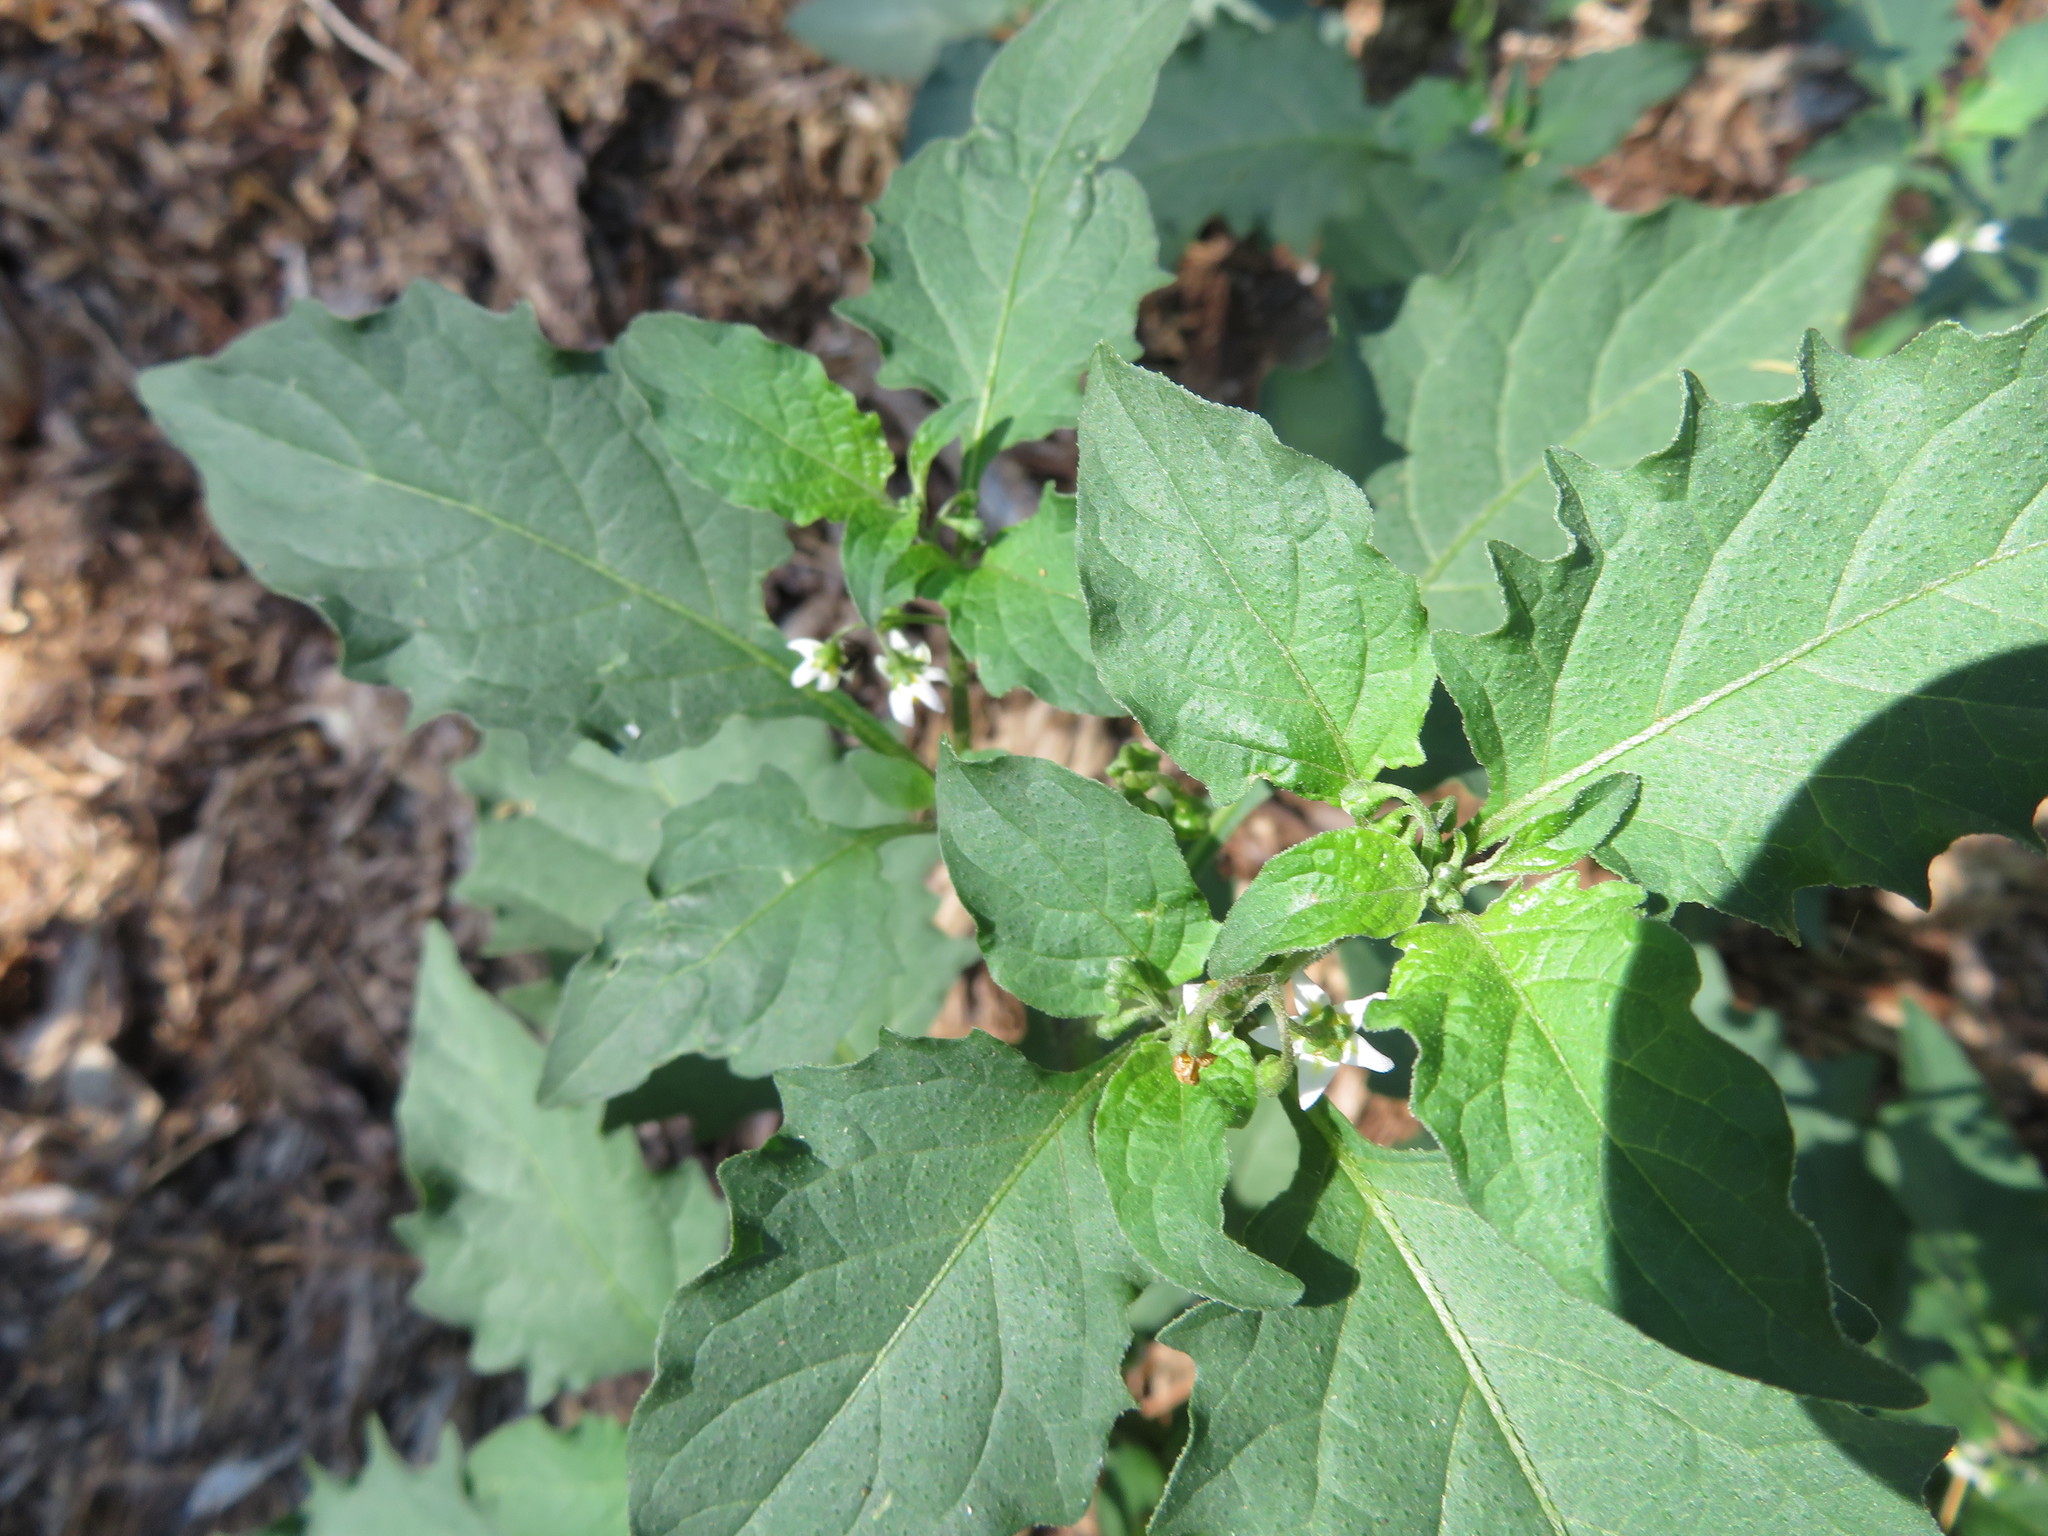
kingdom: Plantae
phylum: Tracheophyta
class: Magnoliopsida
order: Solanales
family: Solanaceae
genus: Solanum
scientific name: Solanum nigrum
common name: Black nightshade
